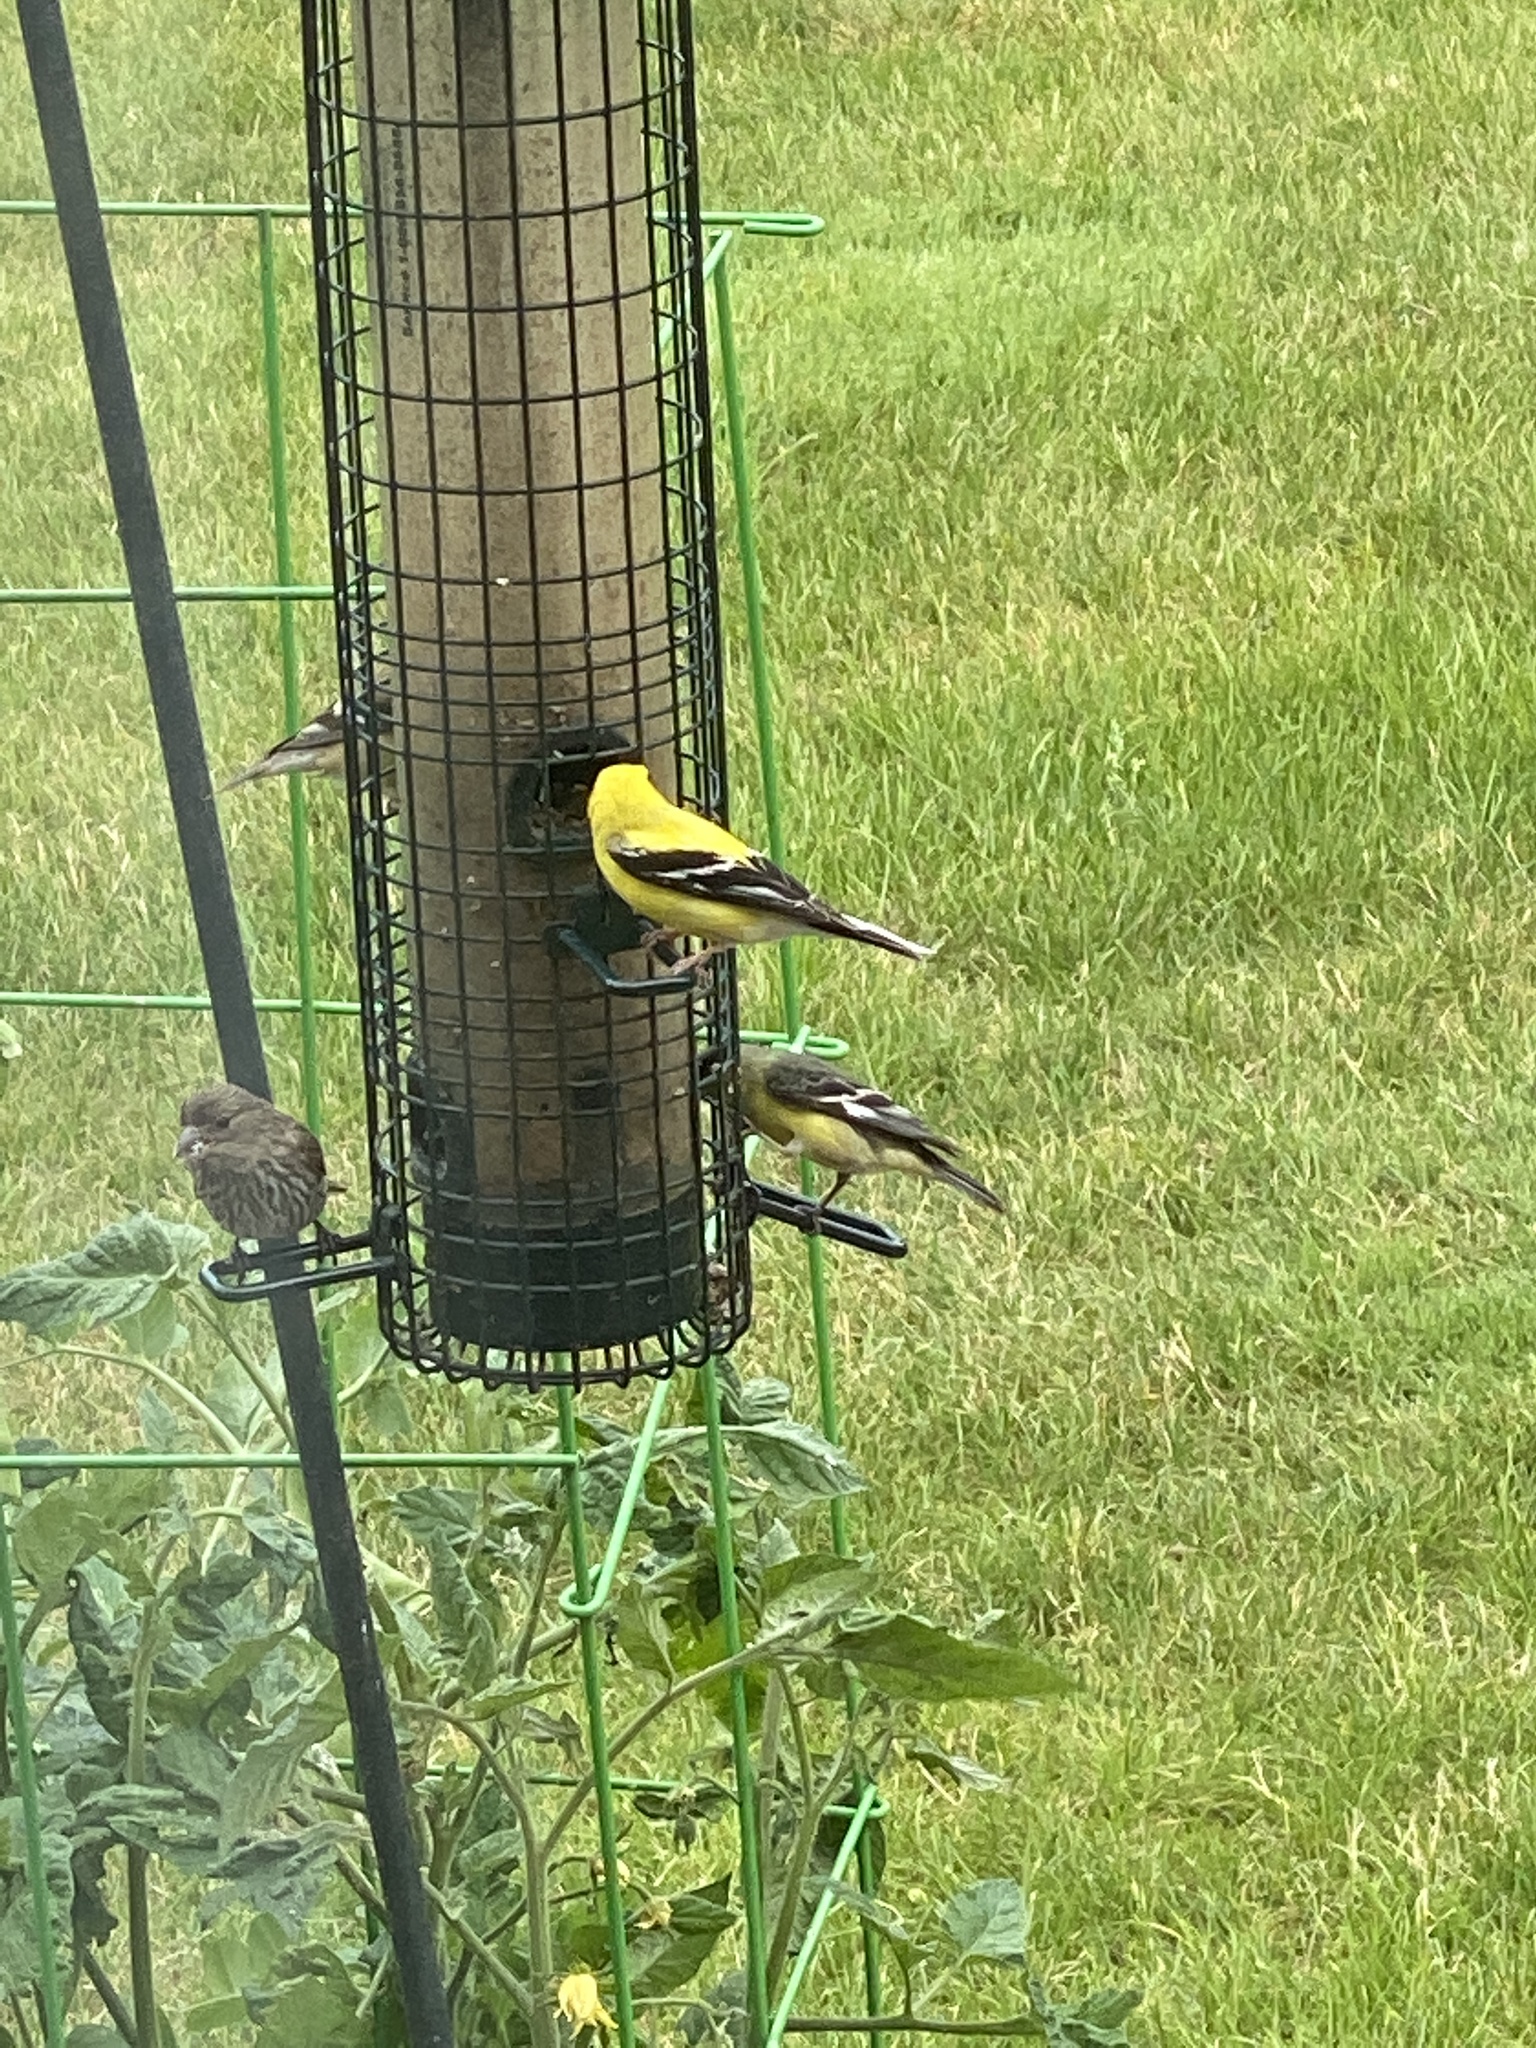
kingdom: Animalia
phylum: Chordata
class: Aves
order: Passeriformes
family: Fringillidae
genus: Spinus
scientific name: Spinus tristis
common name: American goldfinch
